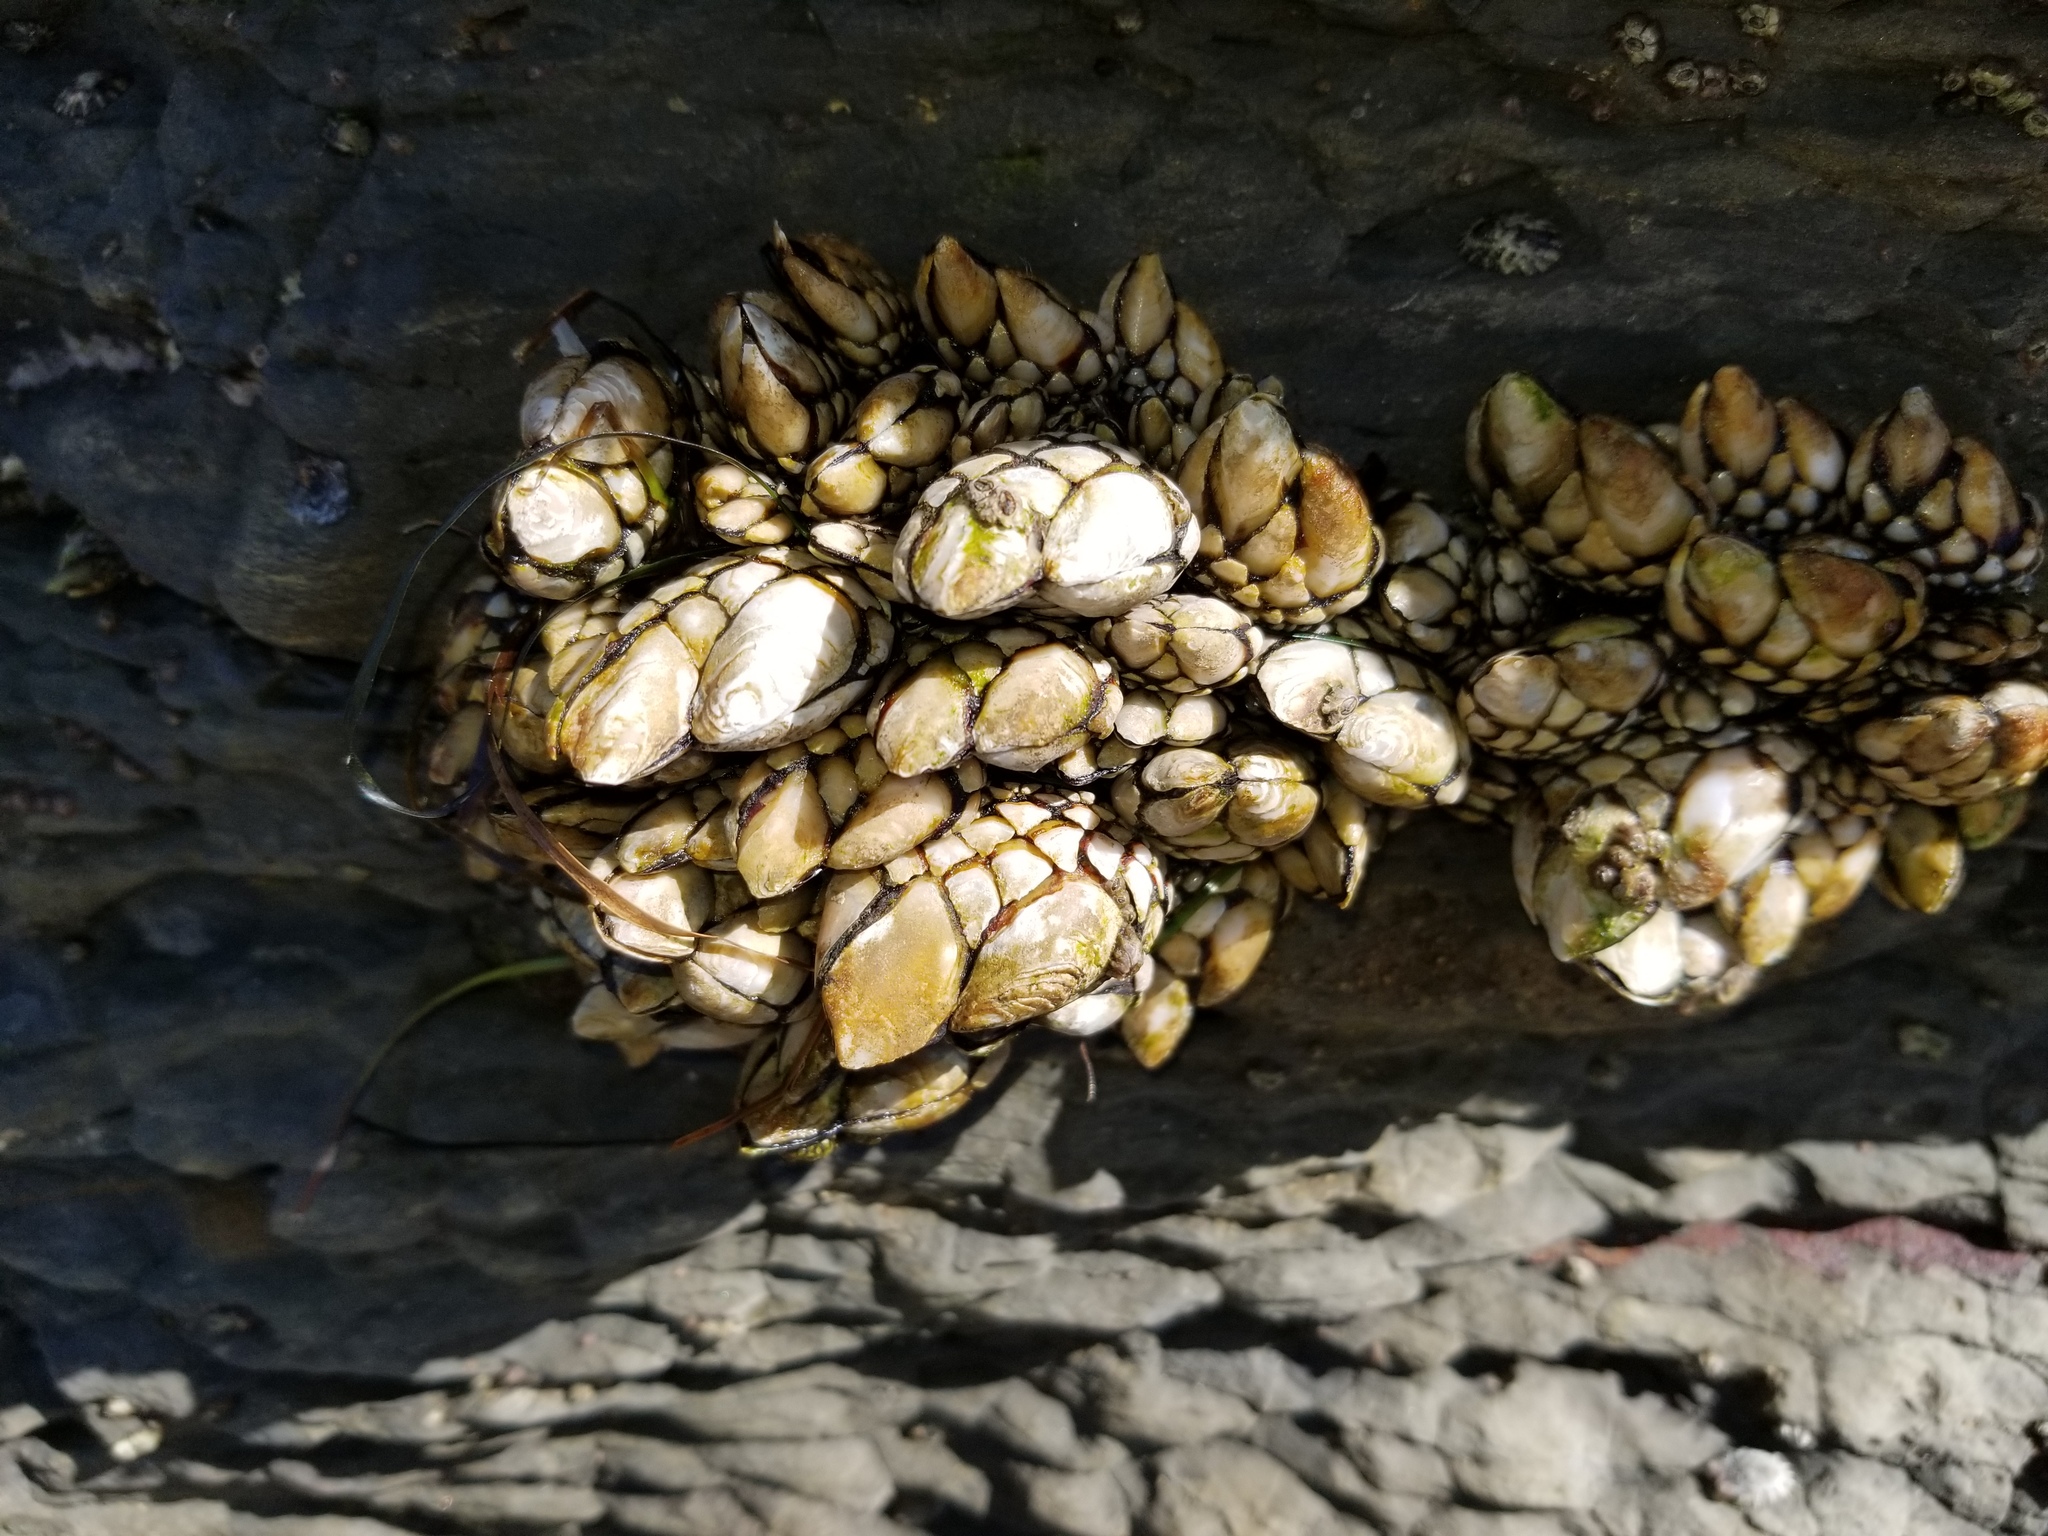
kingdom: Animalia
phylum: Arthropoda
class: Maxillopoda
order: Pedunculata
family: Pollicipedidae
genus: Pollicipes
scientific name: Pollicipes polymerus
